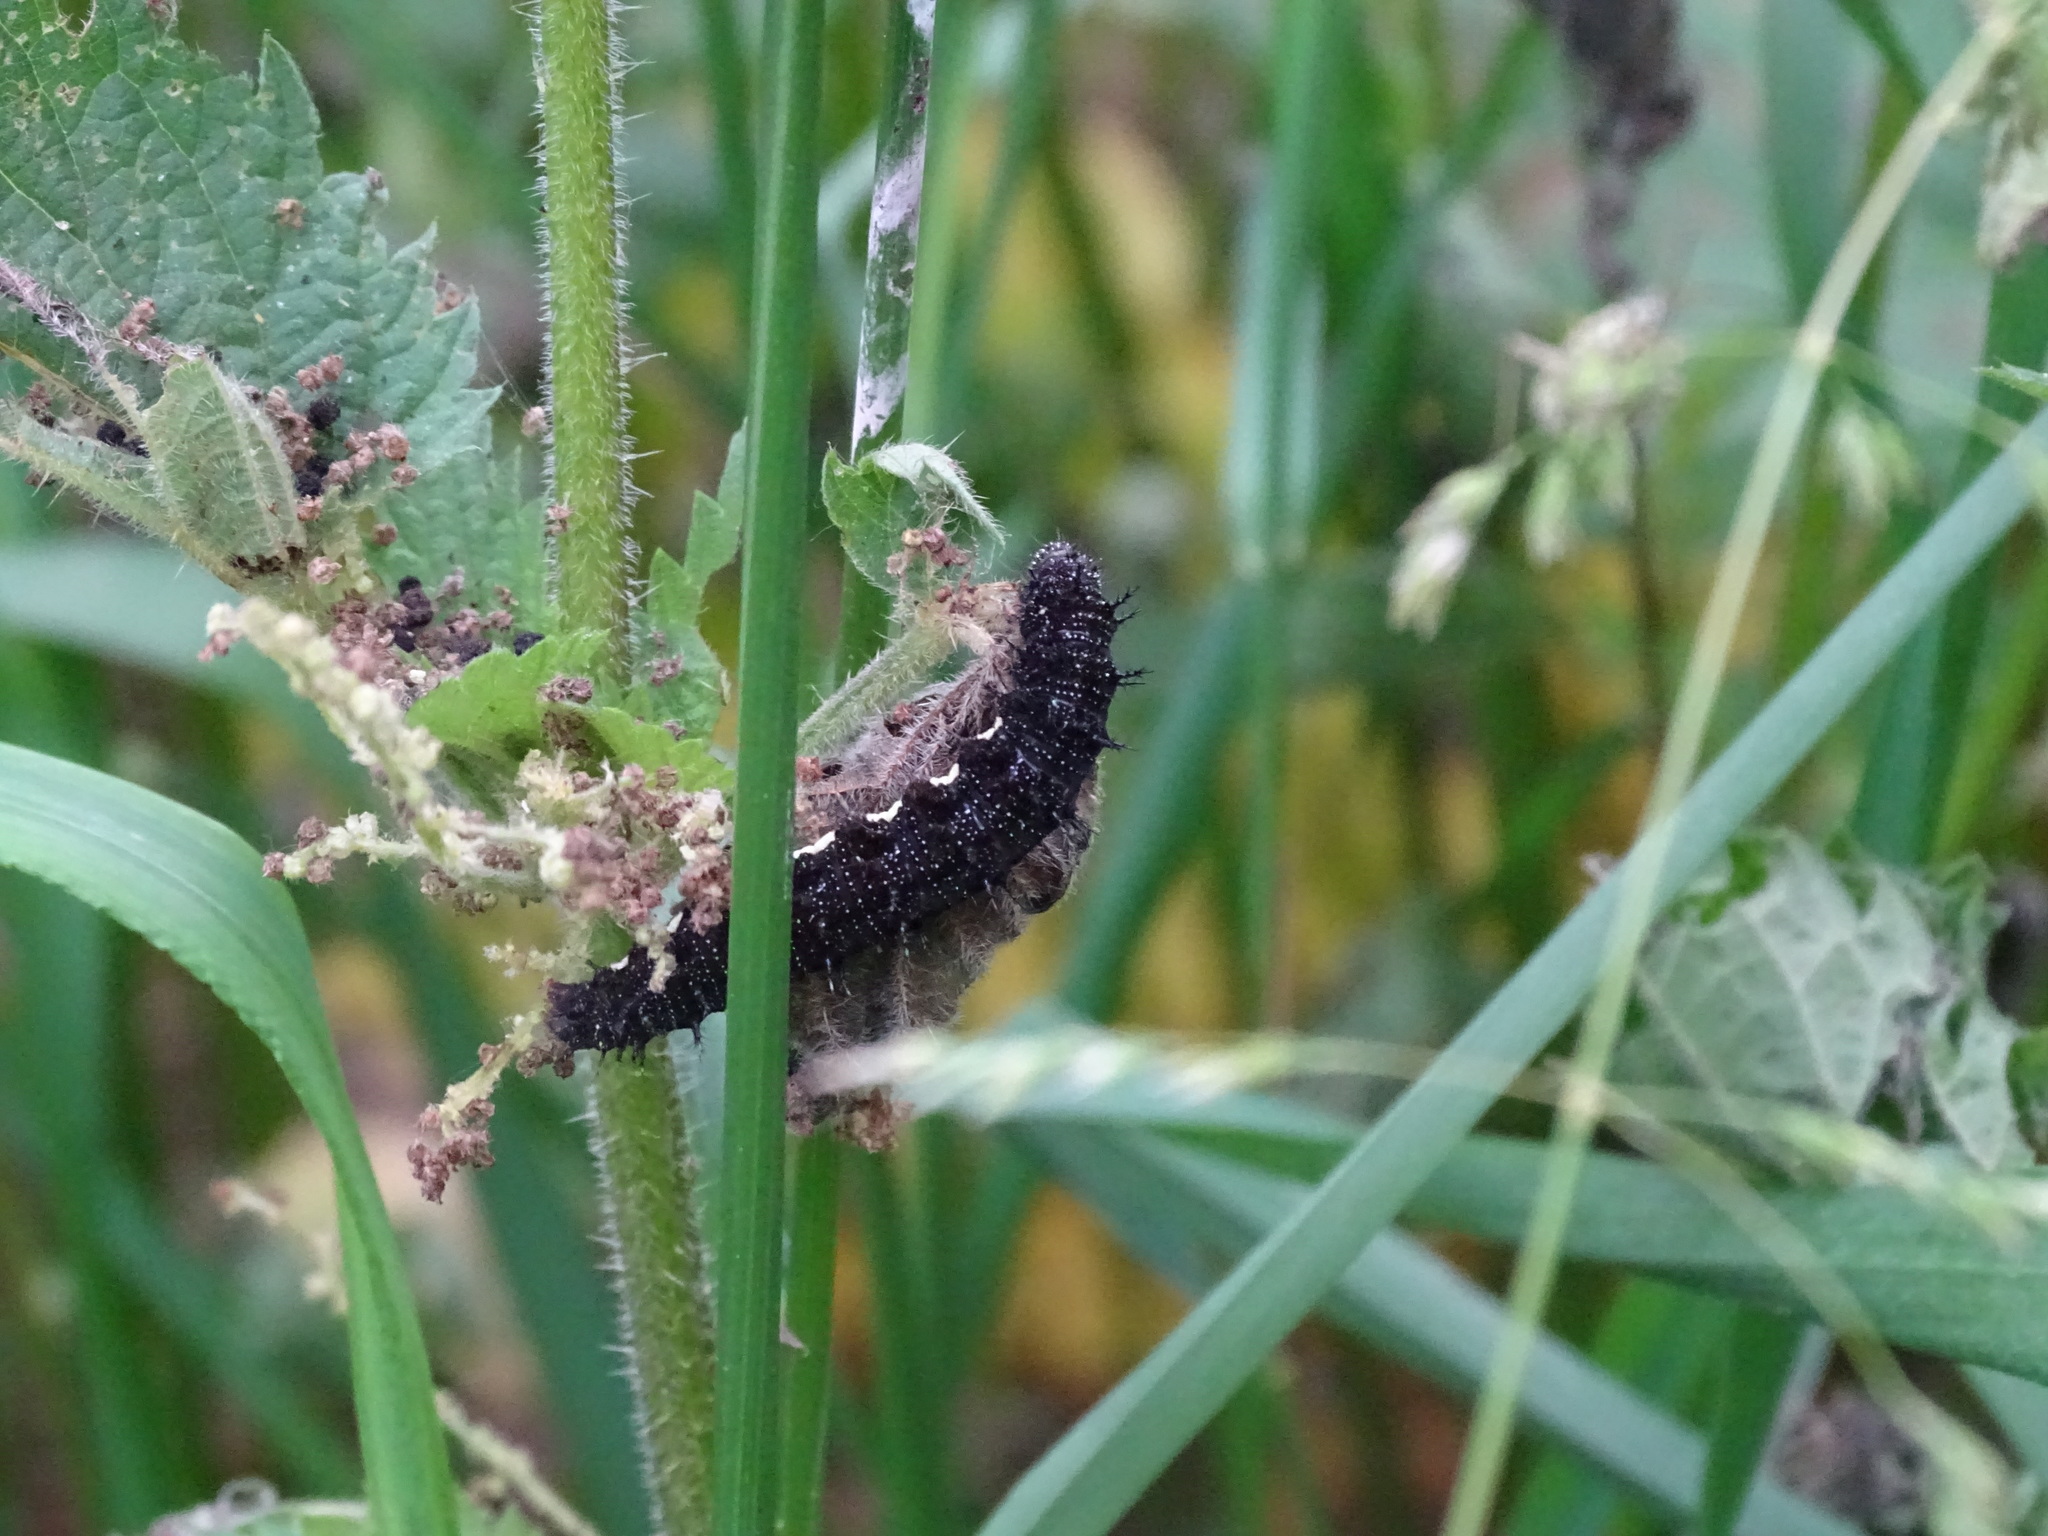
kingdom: Animalia
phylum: Arthropoda
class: Insecta
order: Lepidoptera
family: Nymphalidae
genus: Vanessa
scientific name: Vanessa atalanta
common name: Red admiral
